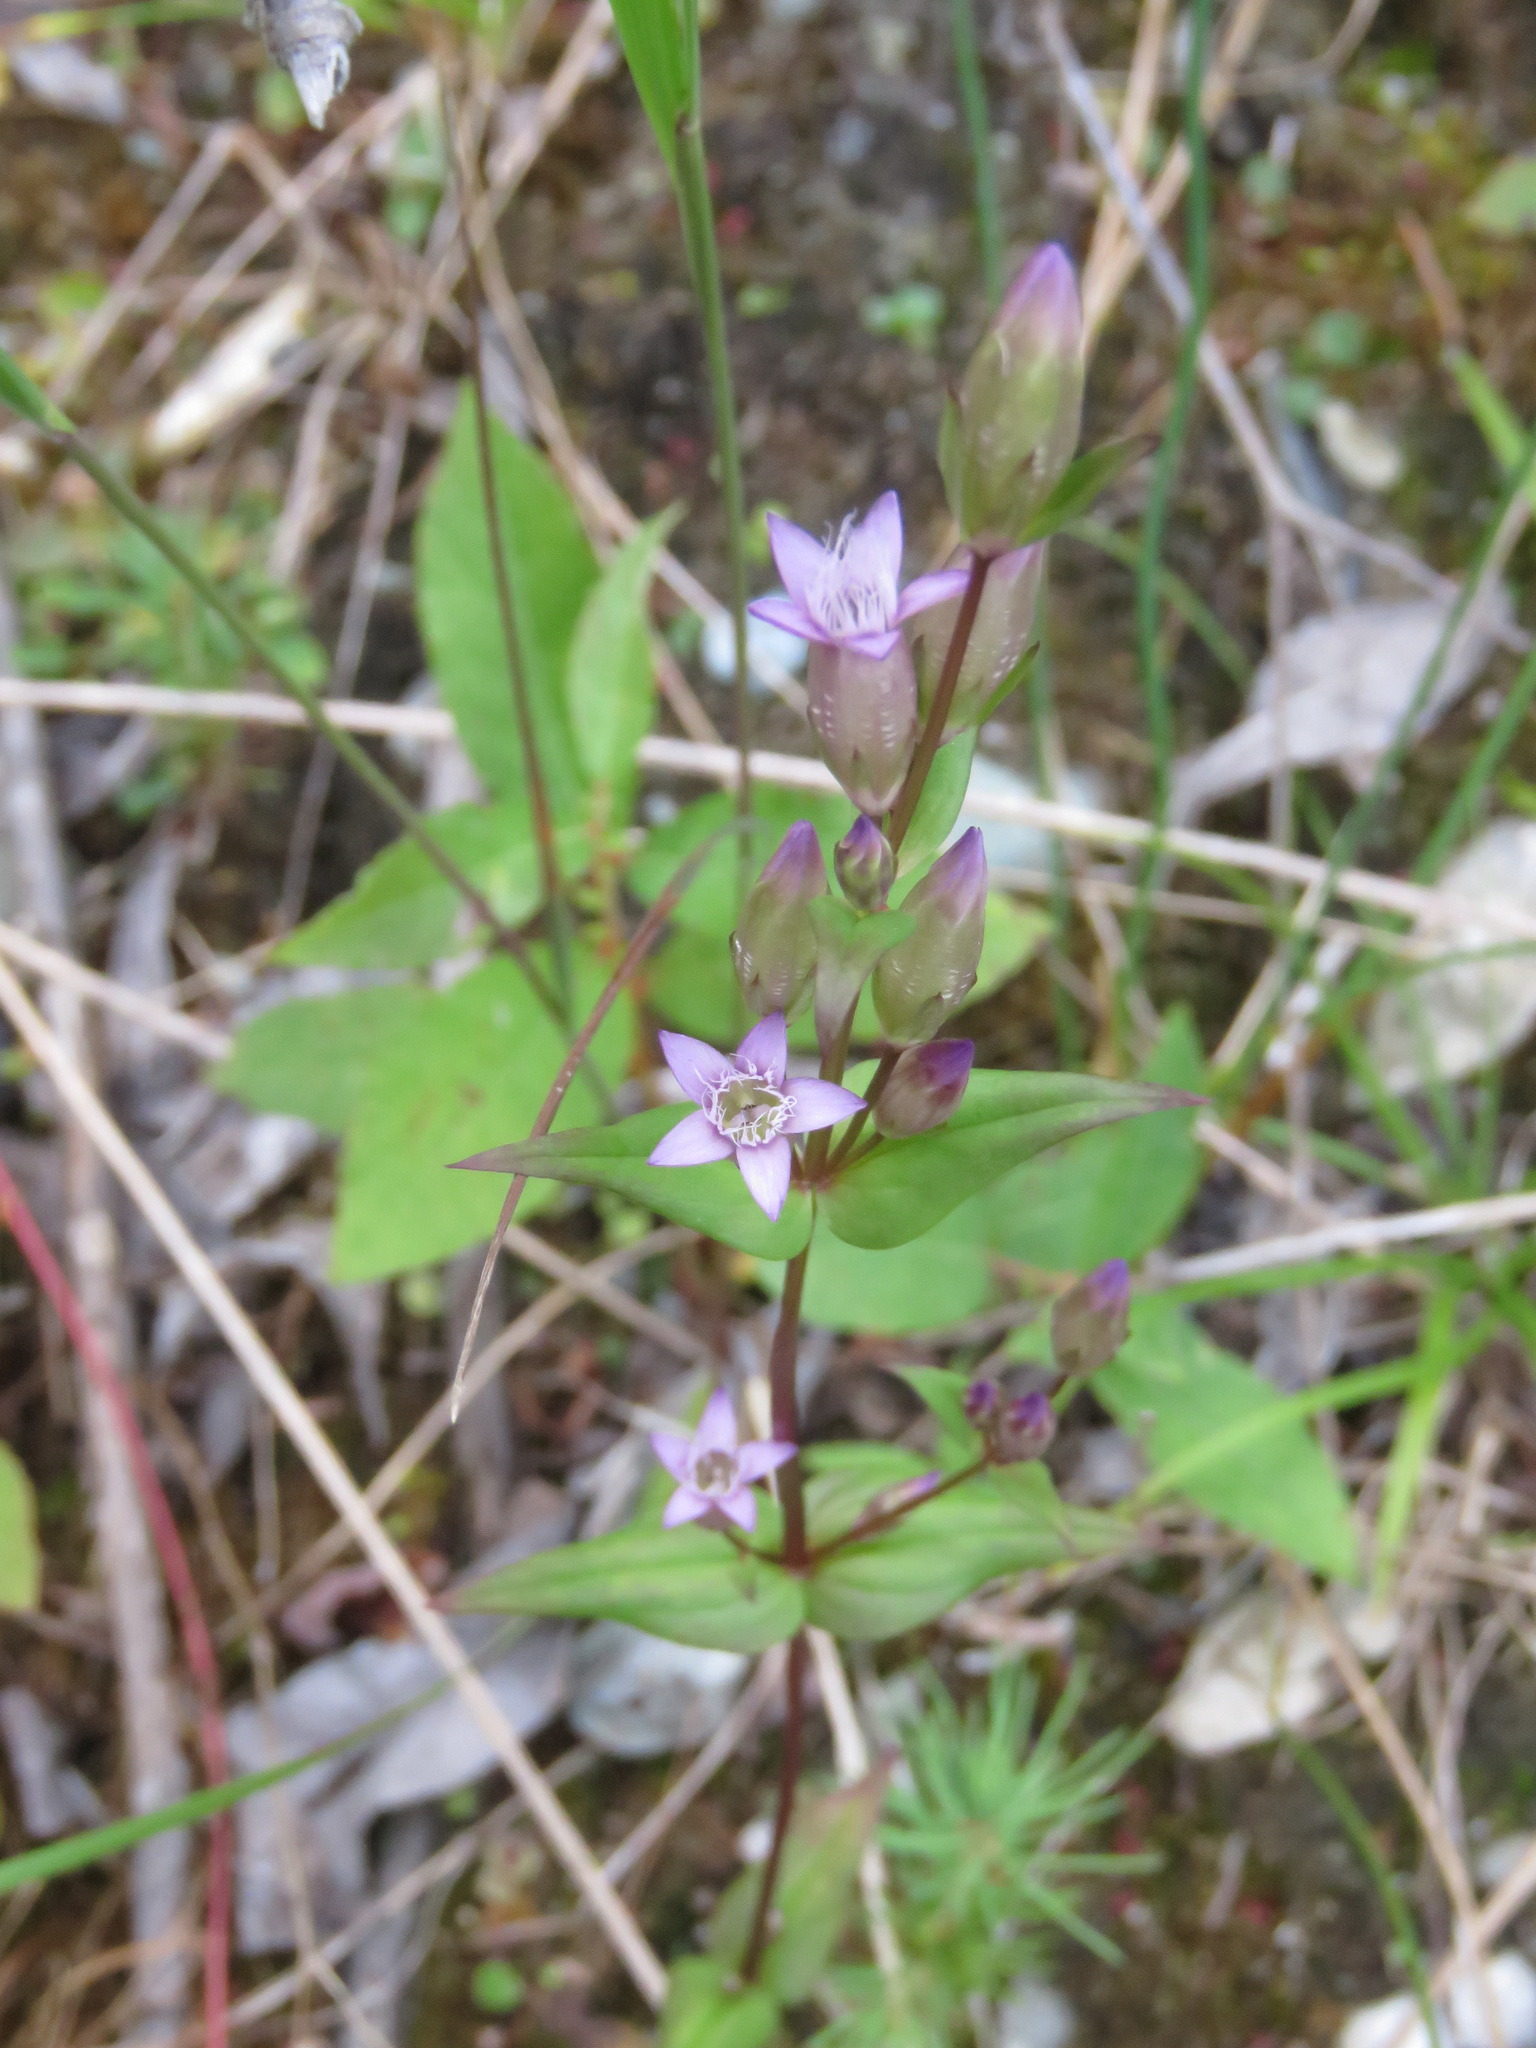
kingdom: Plantae
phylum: Tracheophyta
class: Magnoliopsida
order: Gentianales
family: Gentianaceae
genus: Gentianella
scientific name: Gentianella amarella
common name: Autumn gentian
